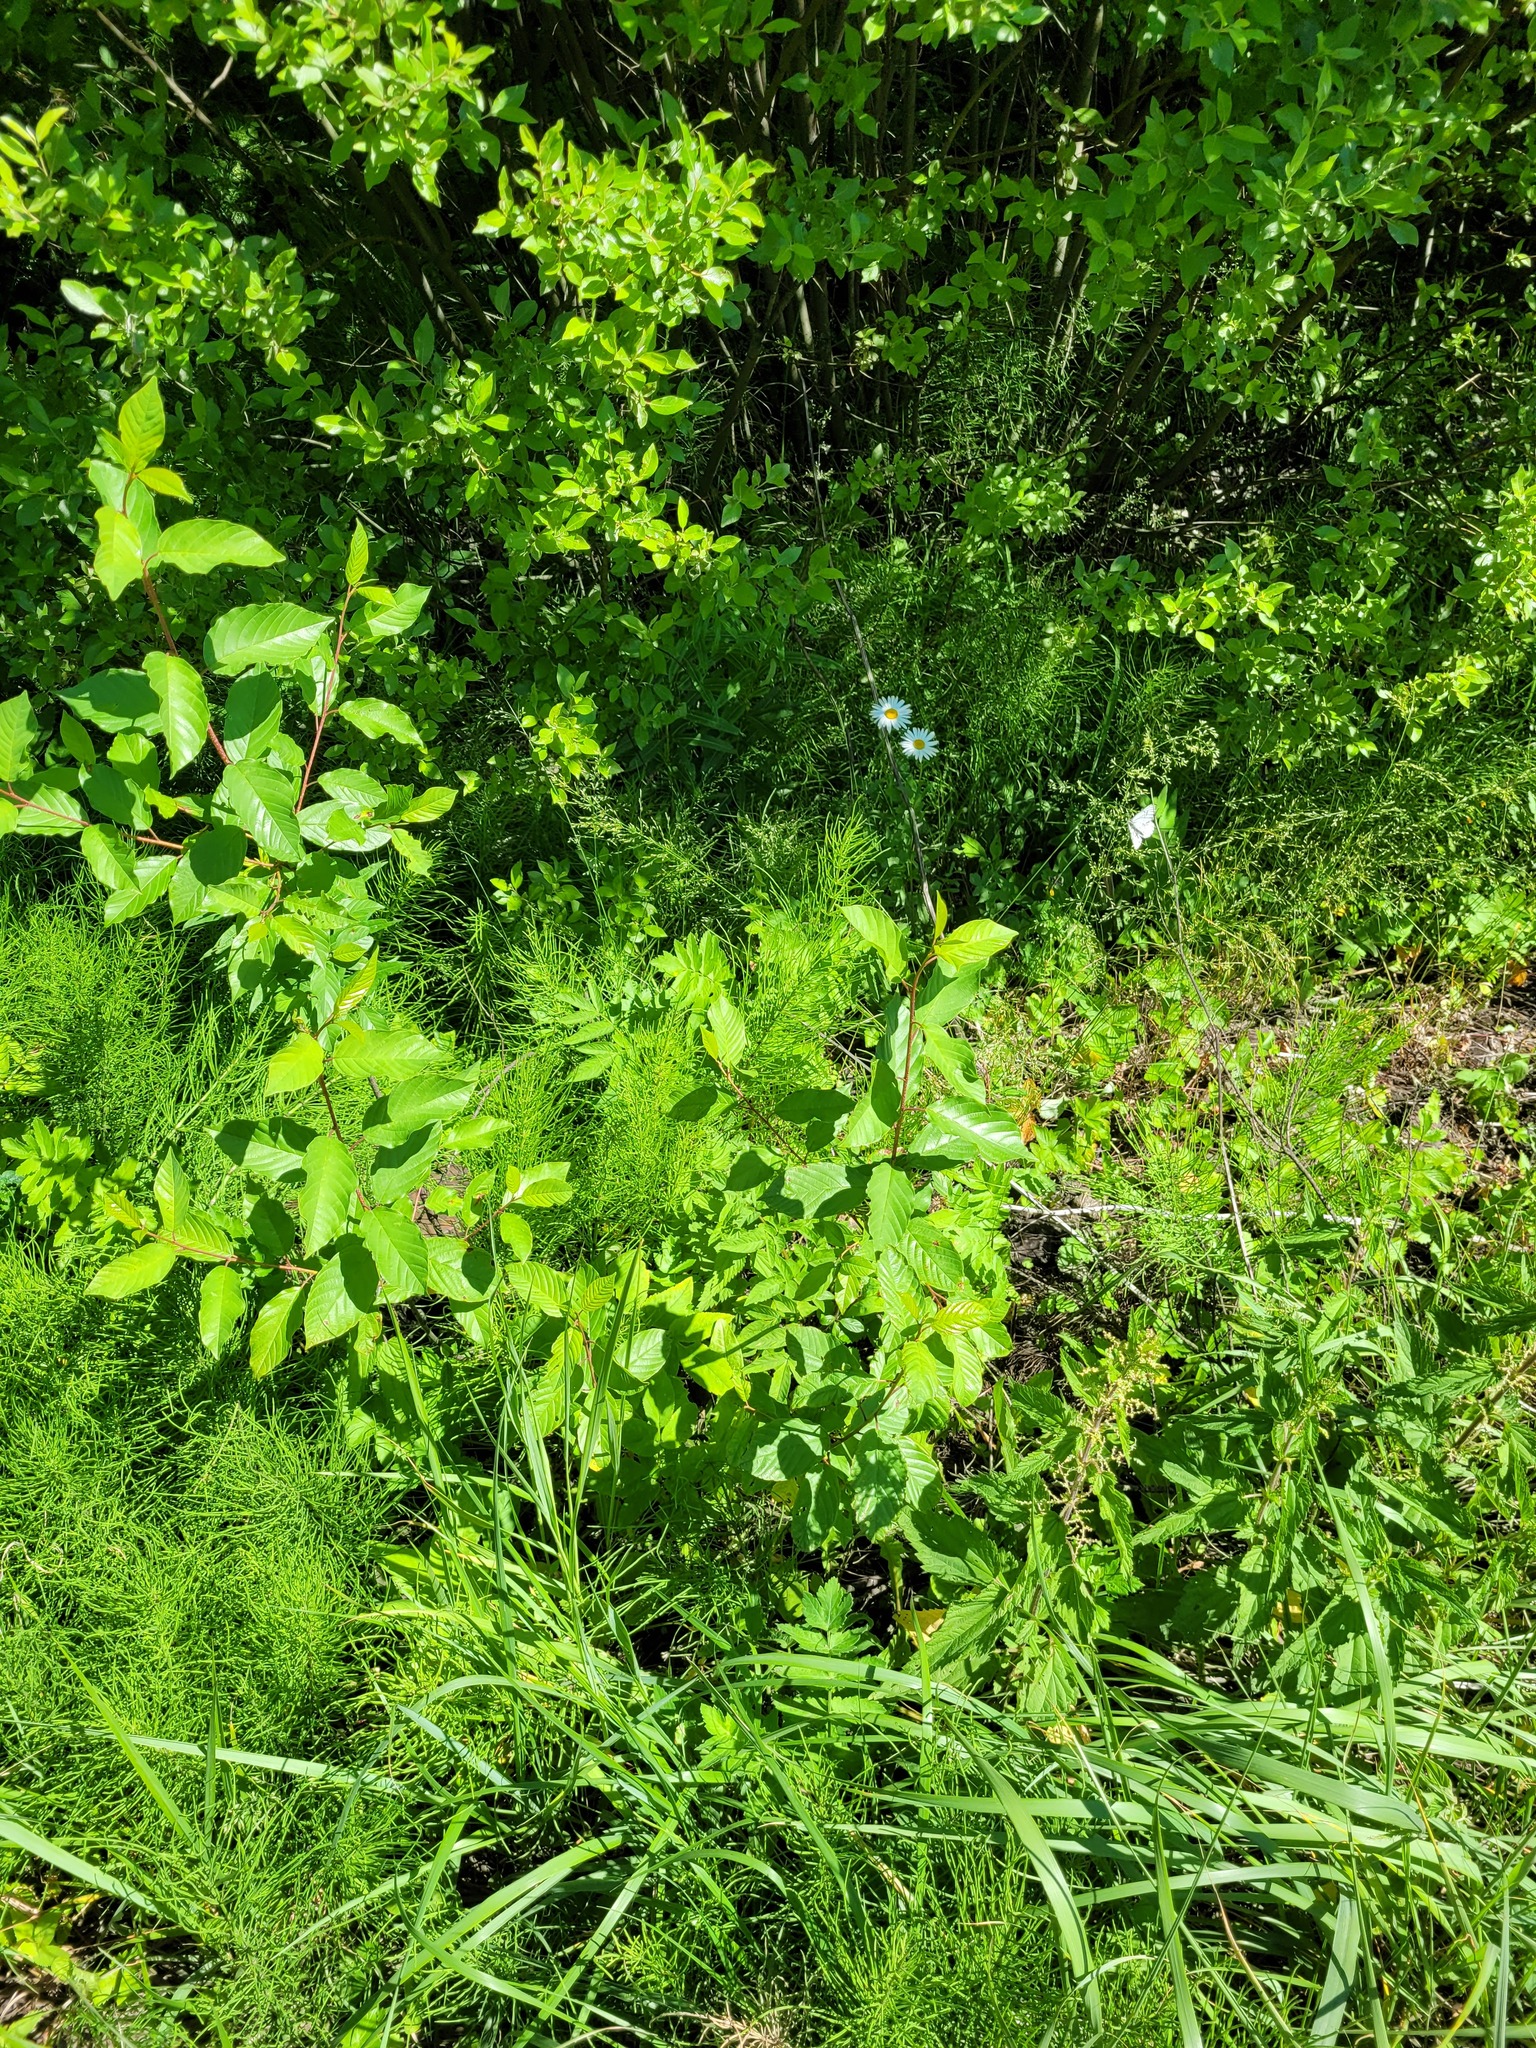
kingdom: Plantae
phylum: Tracheophyta
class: Magnoliopsida
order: Rosales
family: Rhamnaceae
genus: Frangula
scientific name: Frangula alnus
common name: Alder buckthorn
